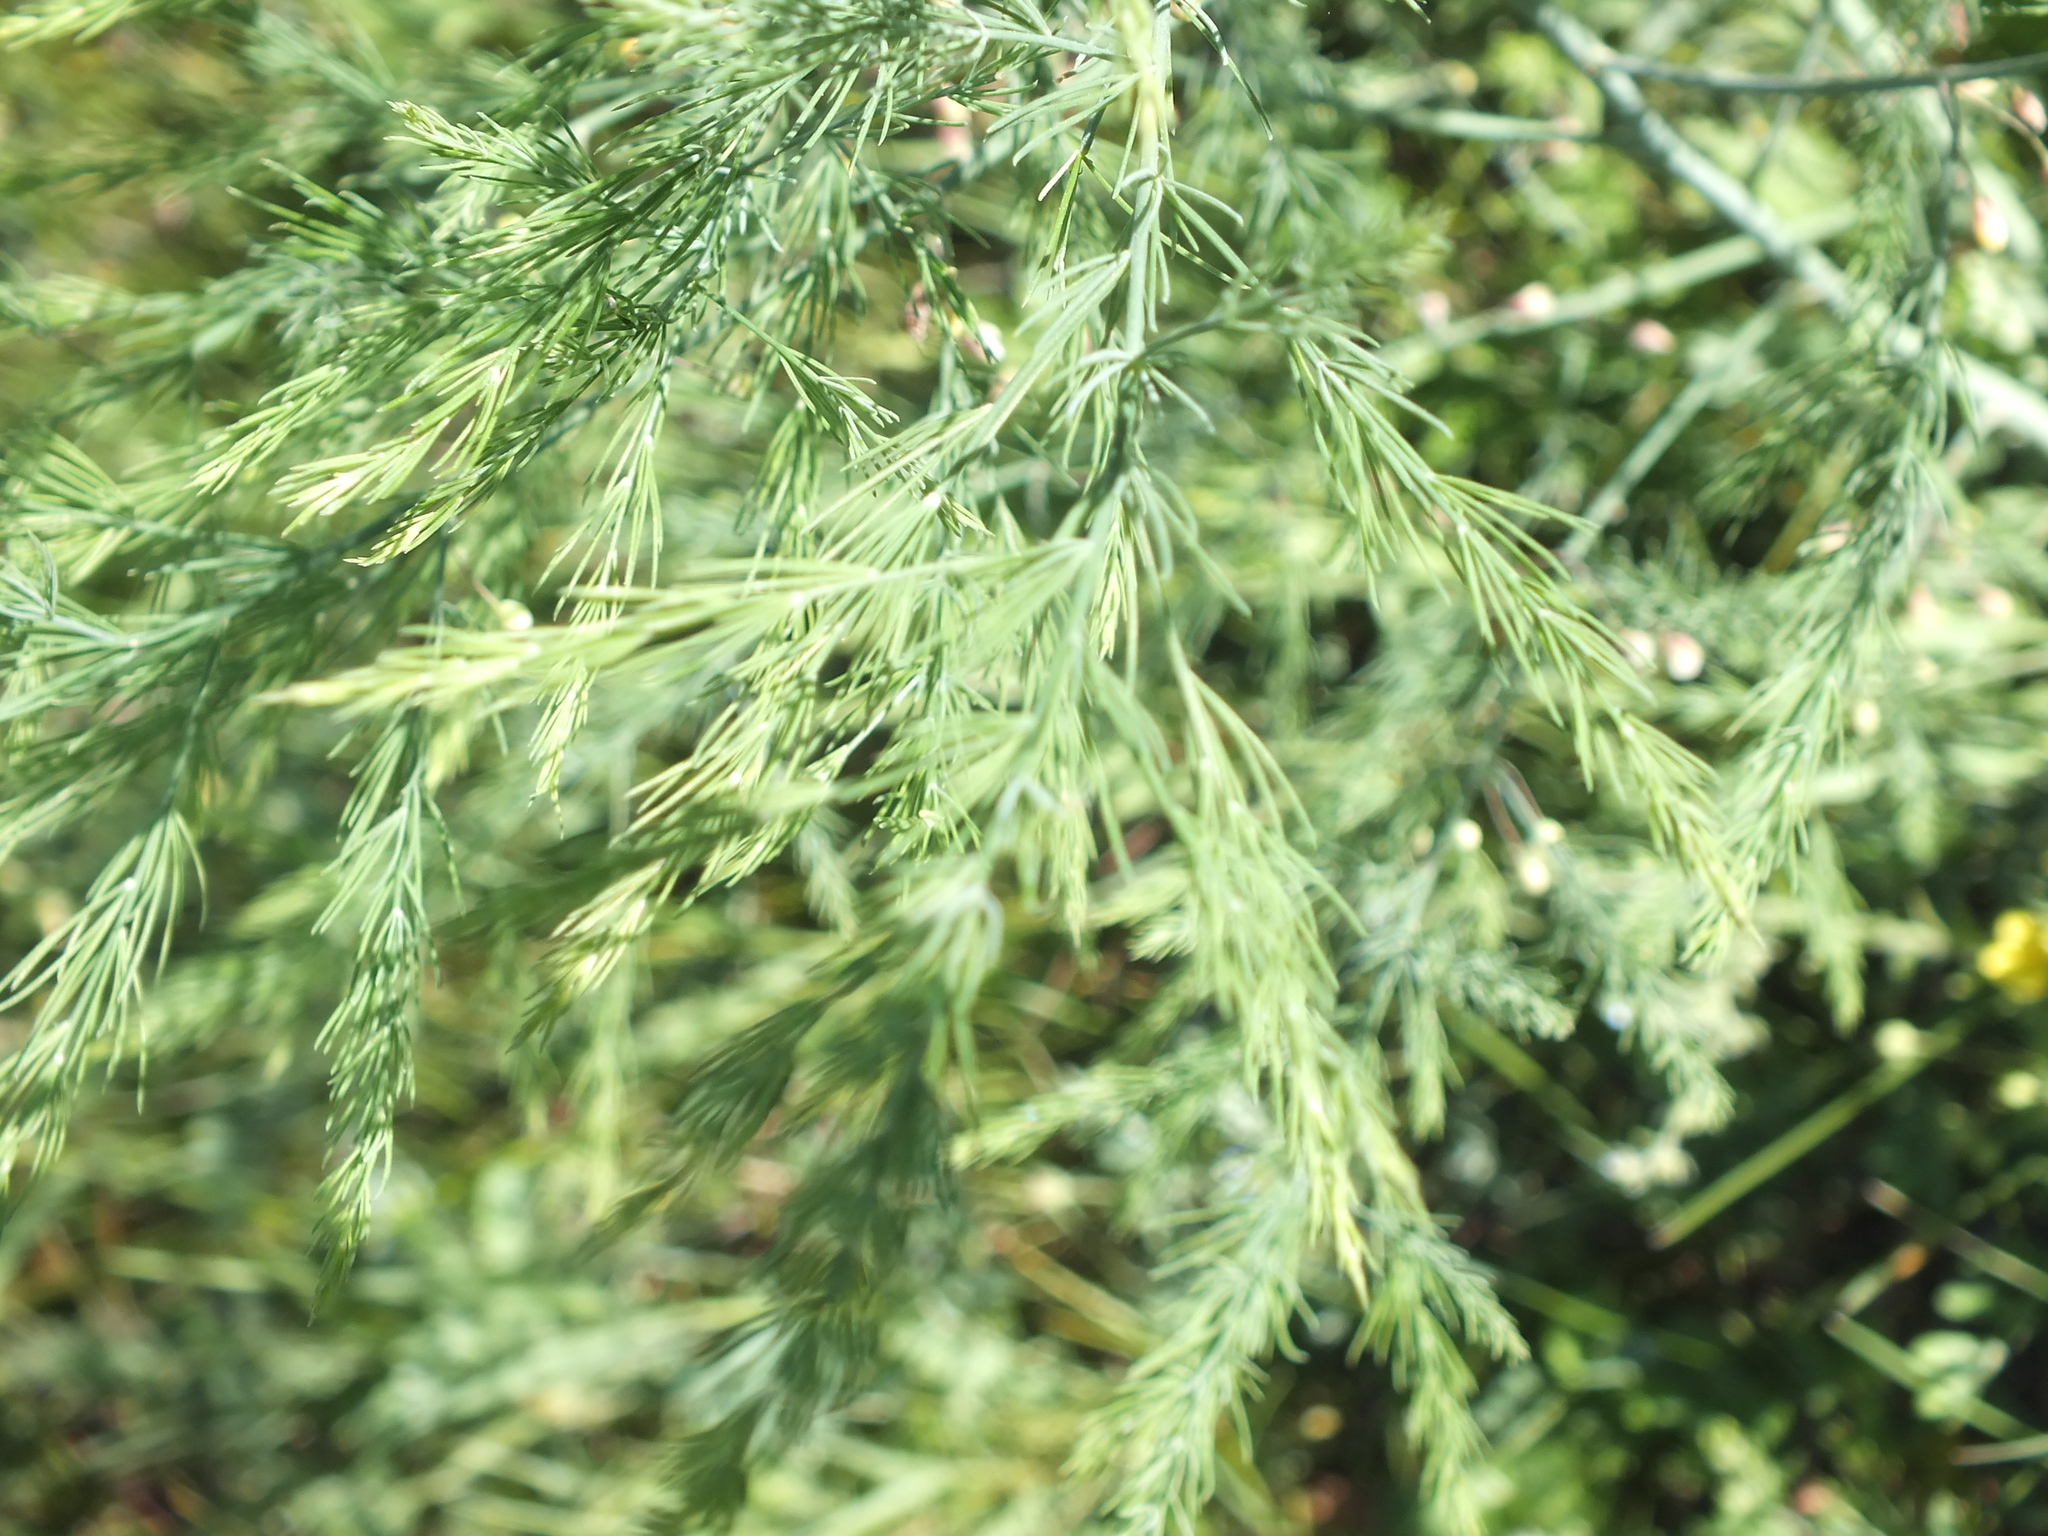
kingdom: Plantae
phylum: Tracheophyta
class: Liliopsida
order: Asparagales
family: Asparagaceae
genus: Asparagus
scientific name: Asparagus officinalis
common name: Garden asparagus
